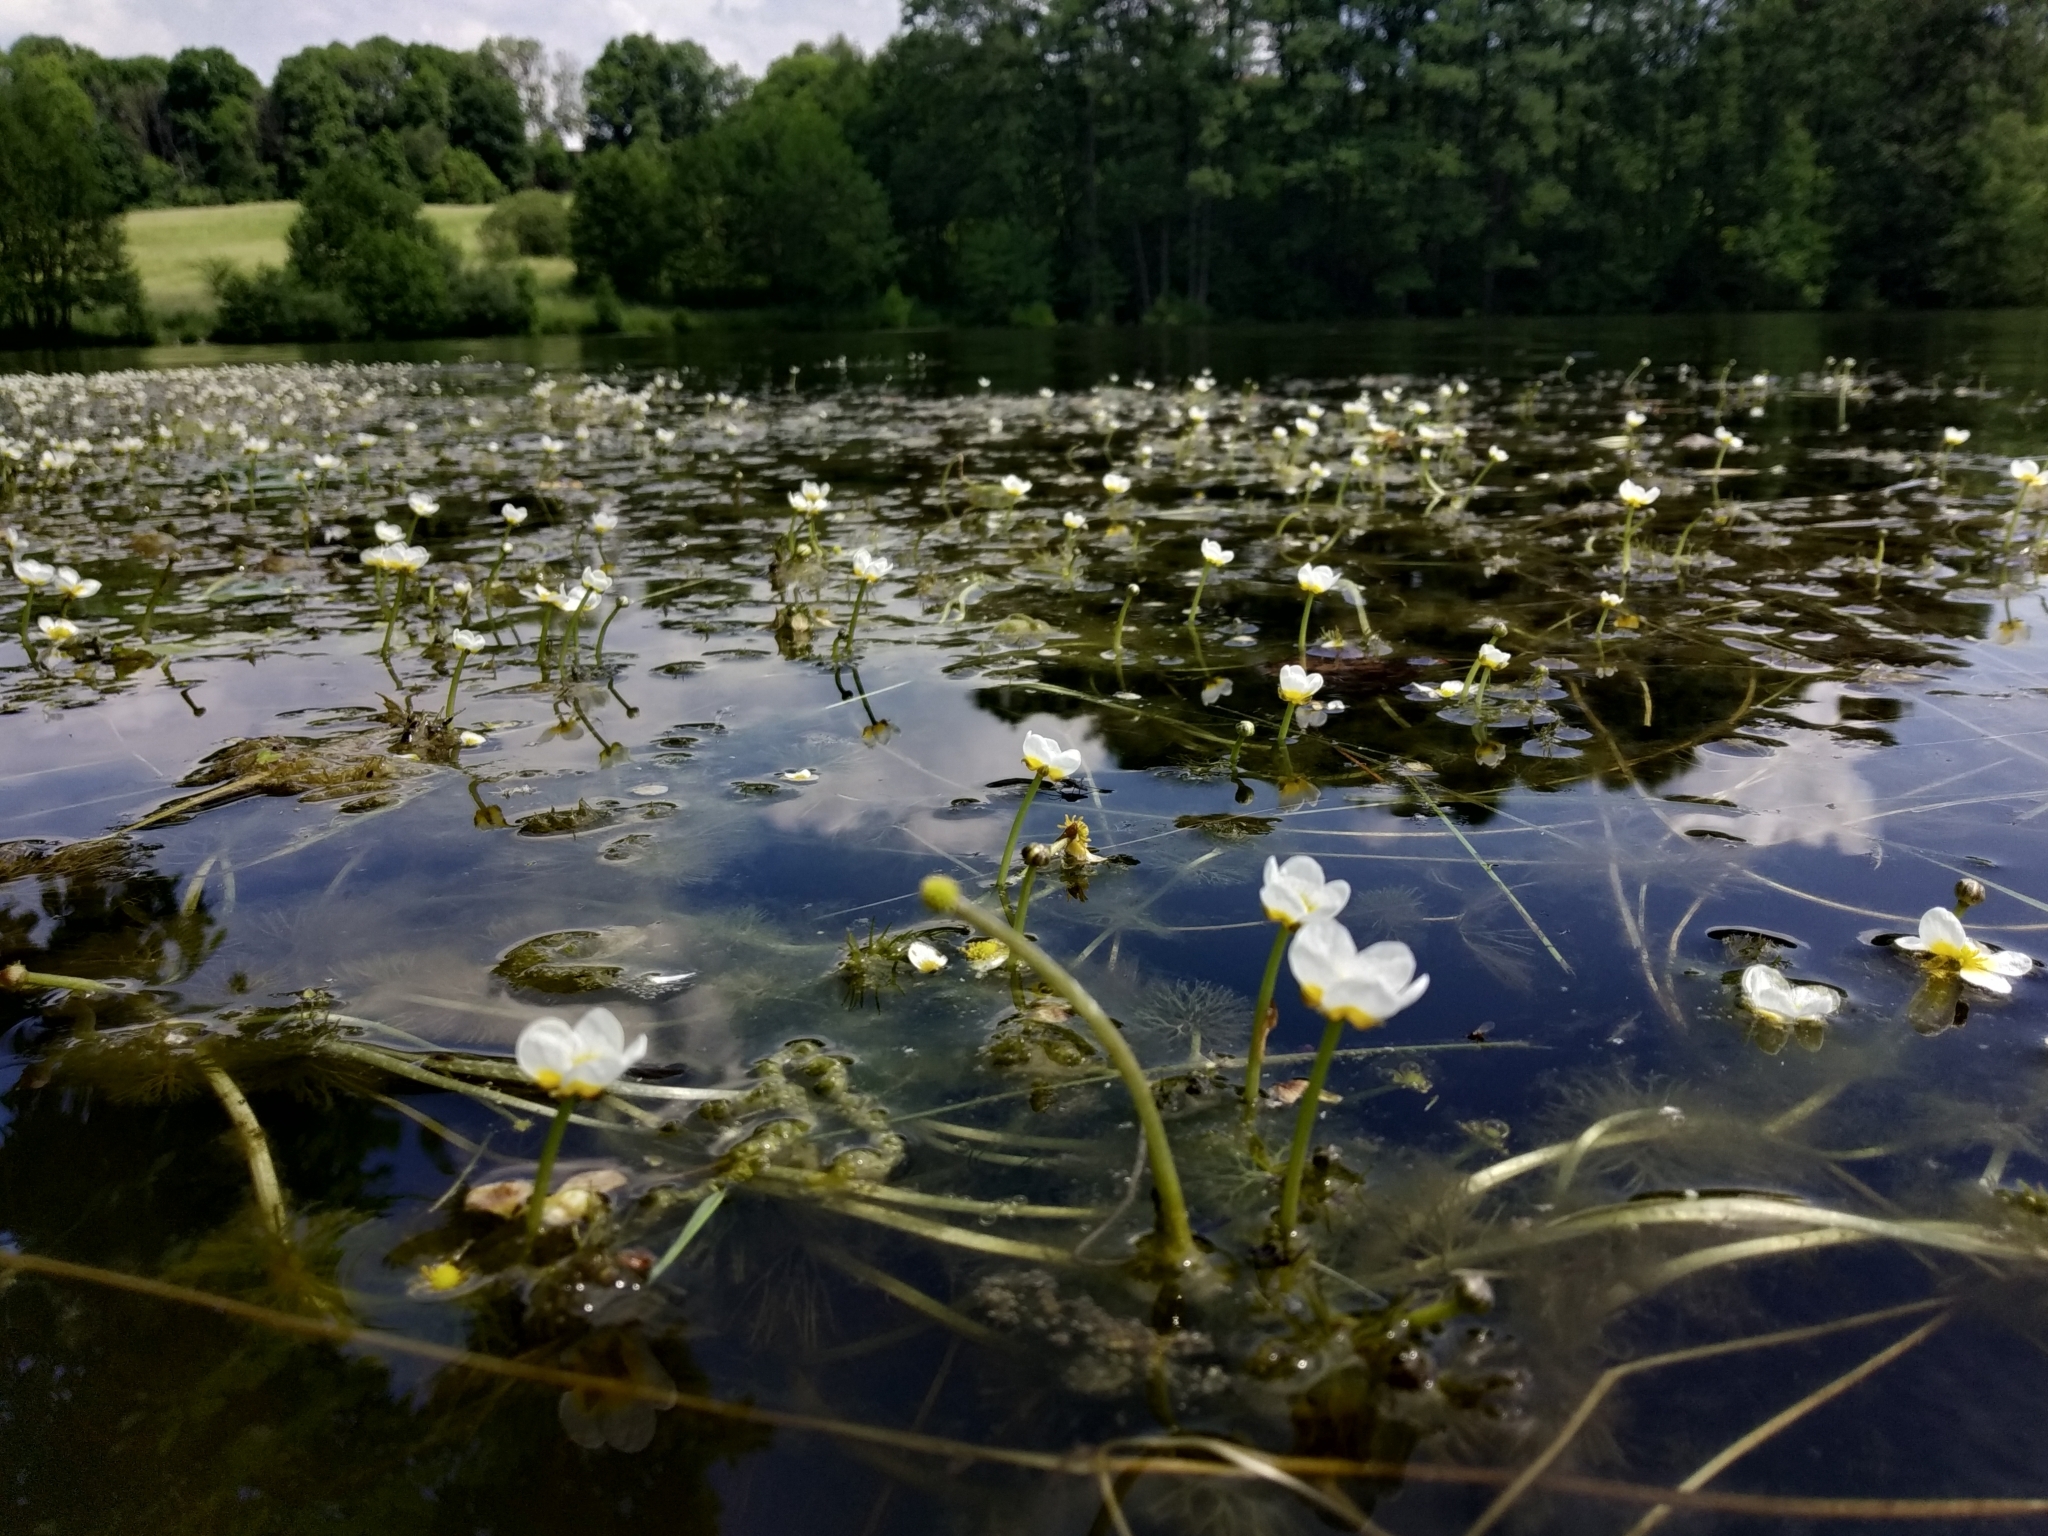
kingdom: Plantae
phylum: Tracheophyta
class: Magnoliopsida
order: Ranunculales
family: Ranunculaceae
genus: Ranunculus
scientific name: Ranunculus circinatus
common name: Fan-leaved water-crowfoot
